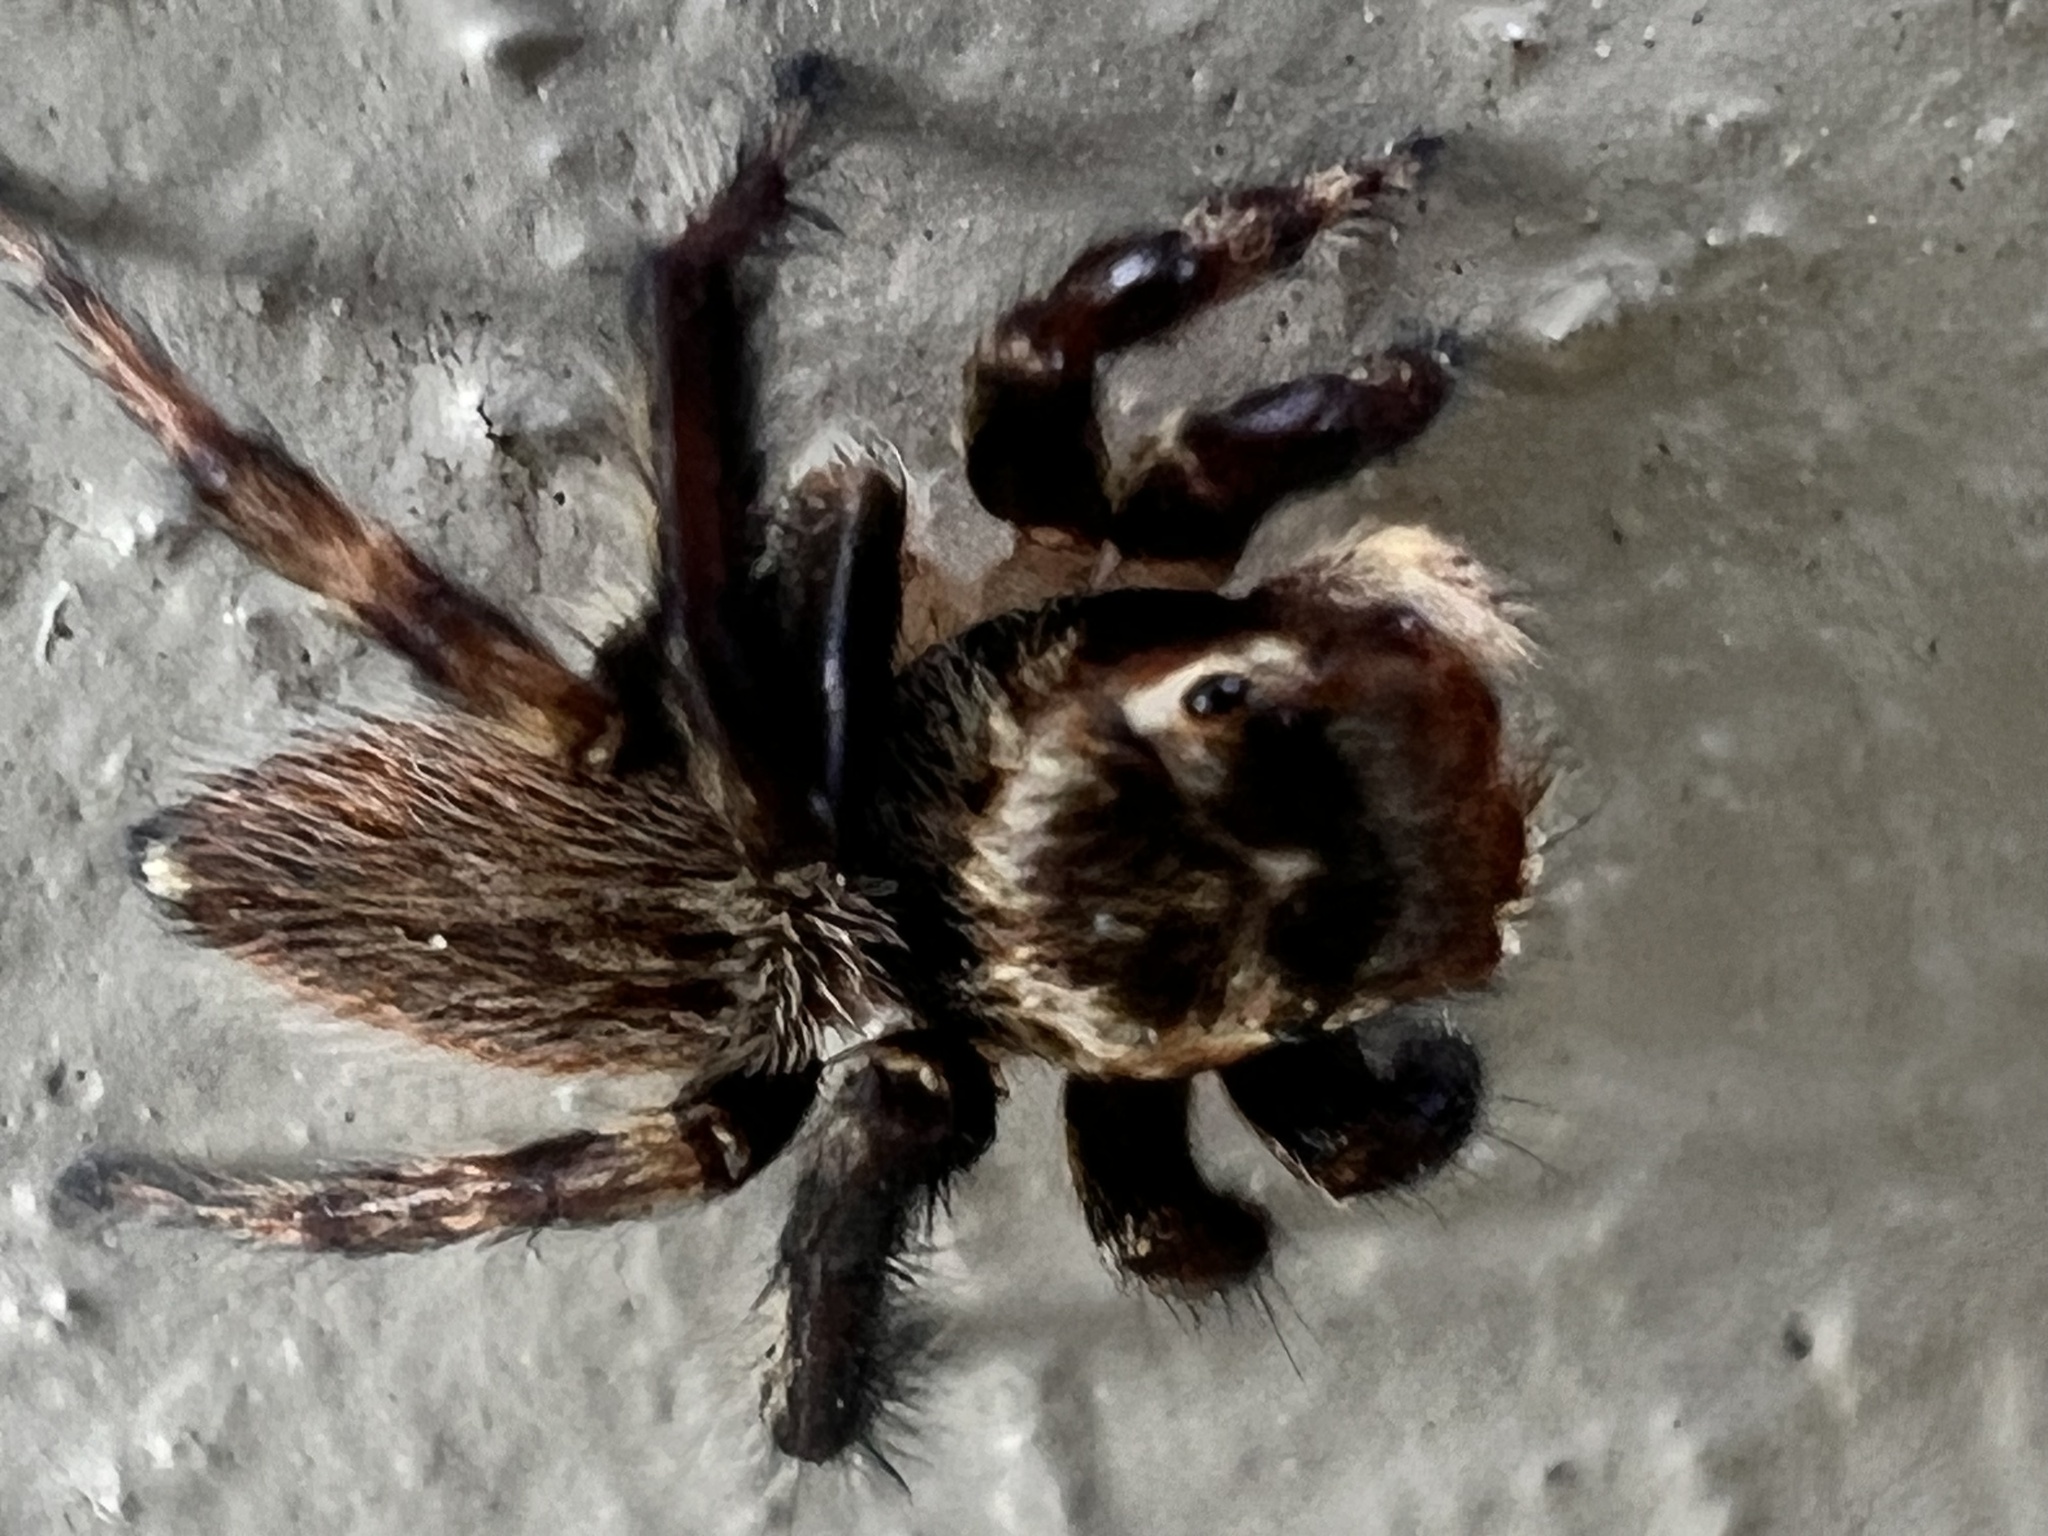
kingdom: Animalia
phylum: Arthropoda
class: Arachnida
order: Araneae
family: Salticidae
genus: Maratus
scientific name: Maratus griseus
